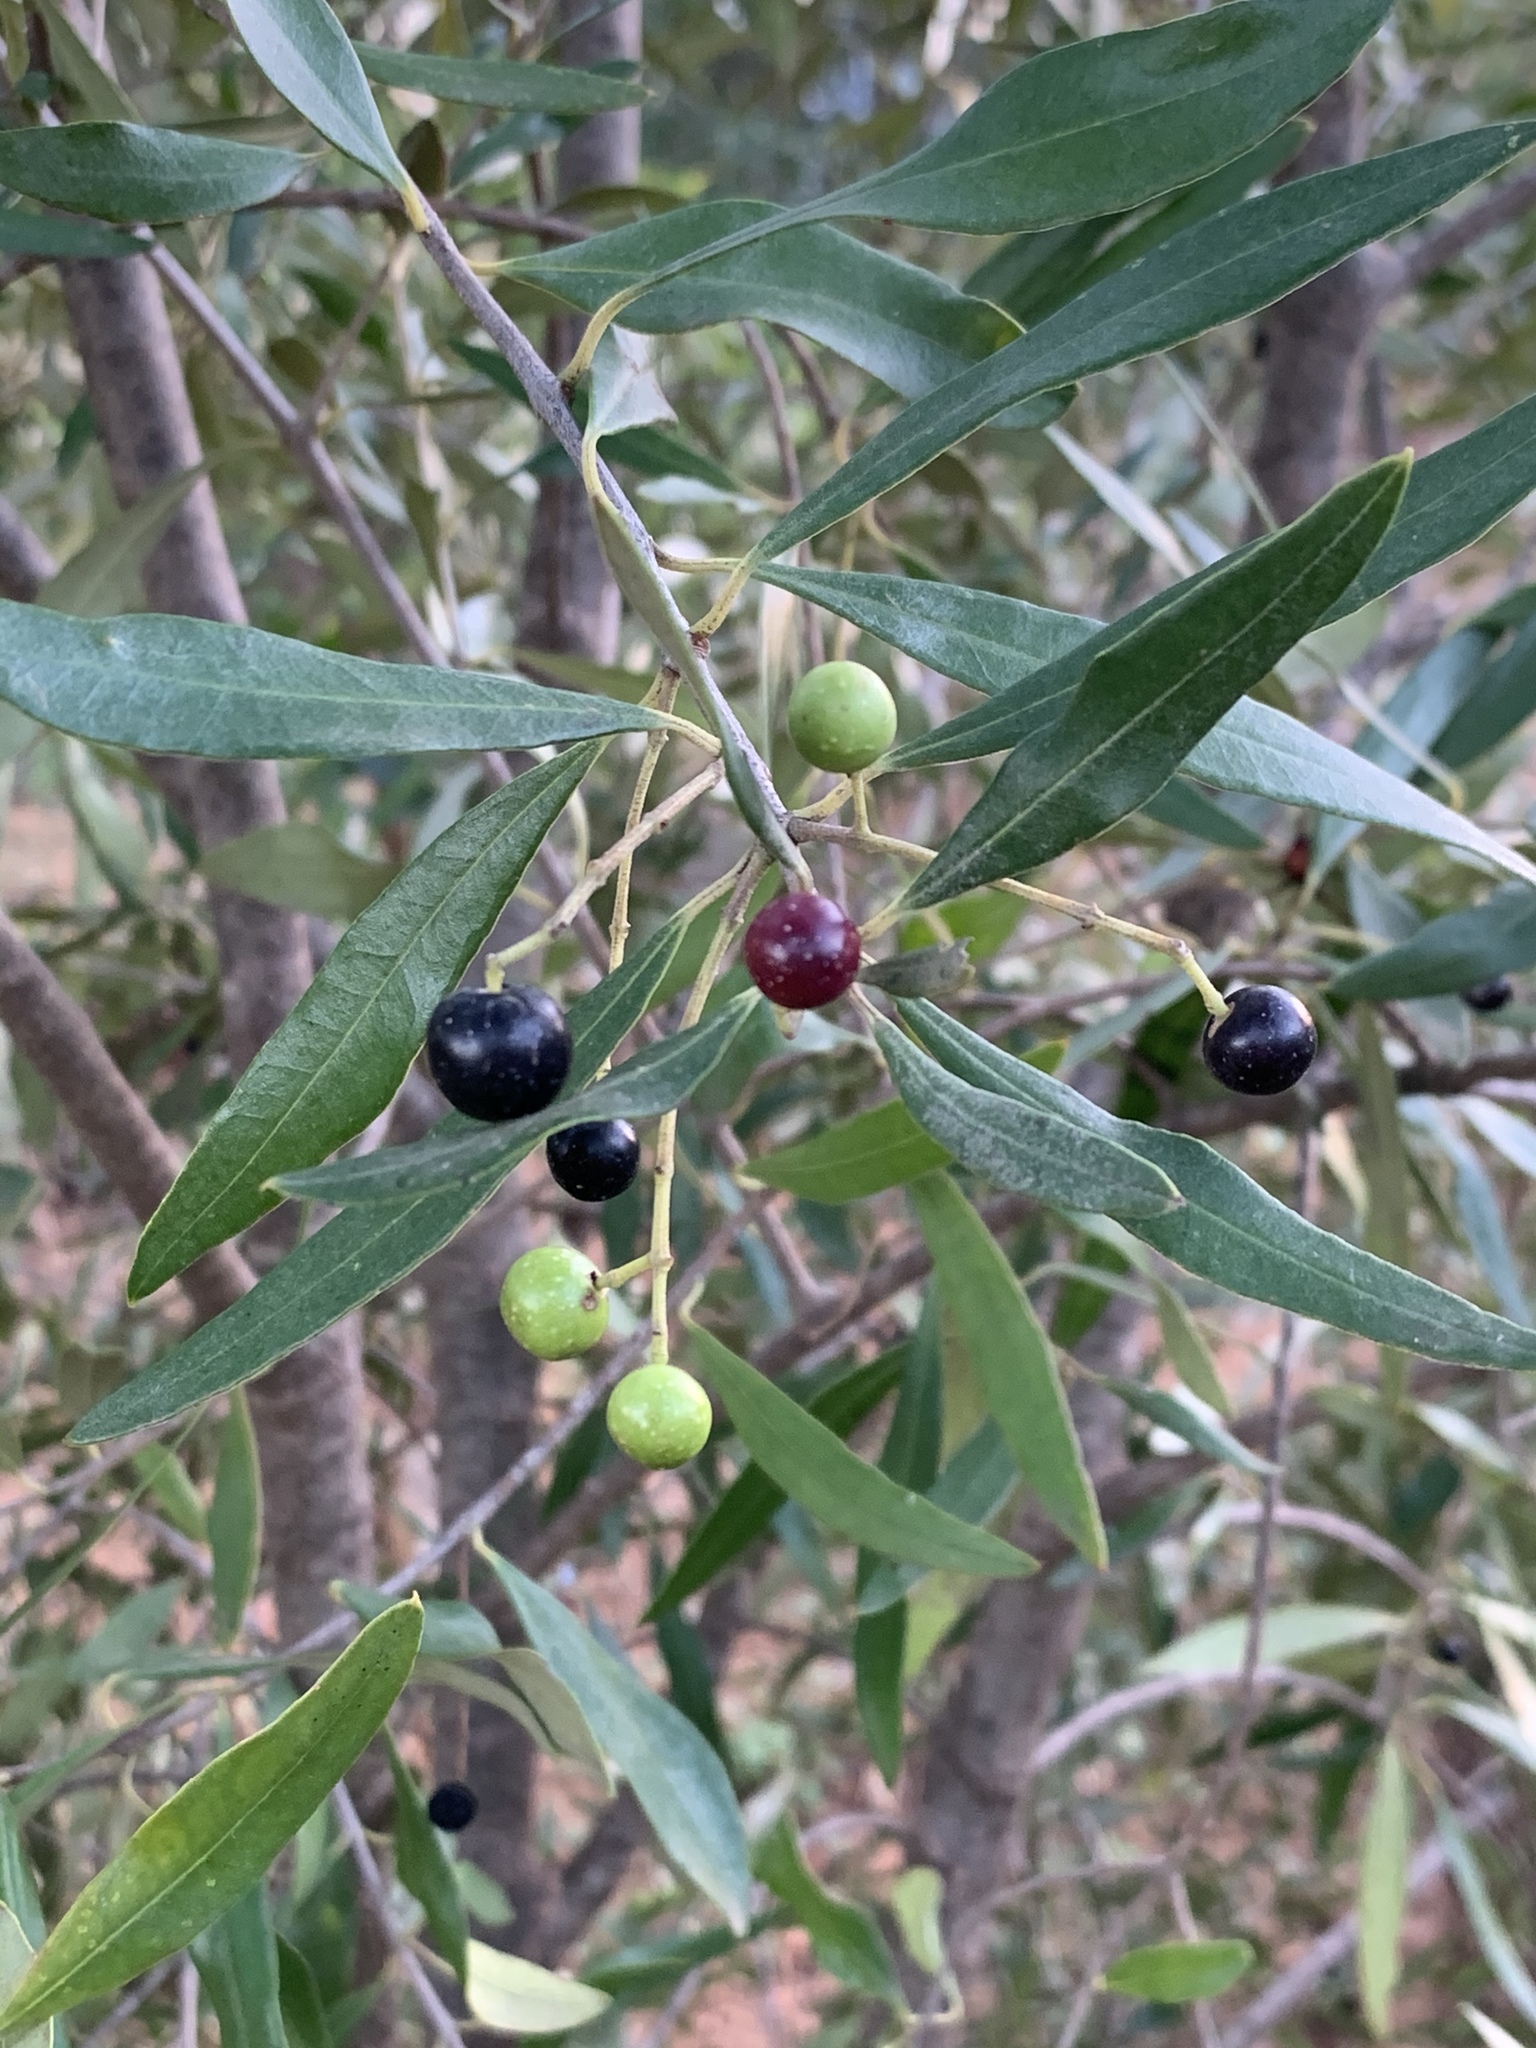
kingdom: Plantae
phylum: Tracheophyta
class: Magnoliopsida
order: Lamiales
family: Oleaceae
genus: Olea
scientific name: Olea europaea
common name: Olive
